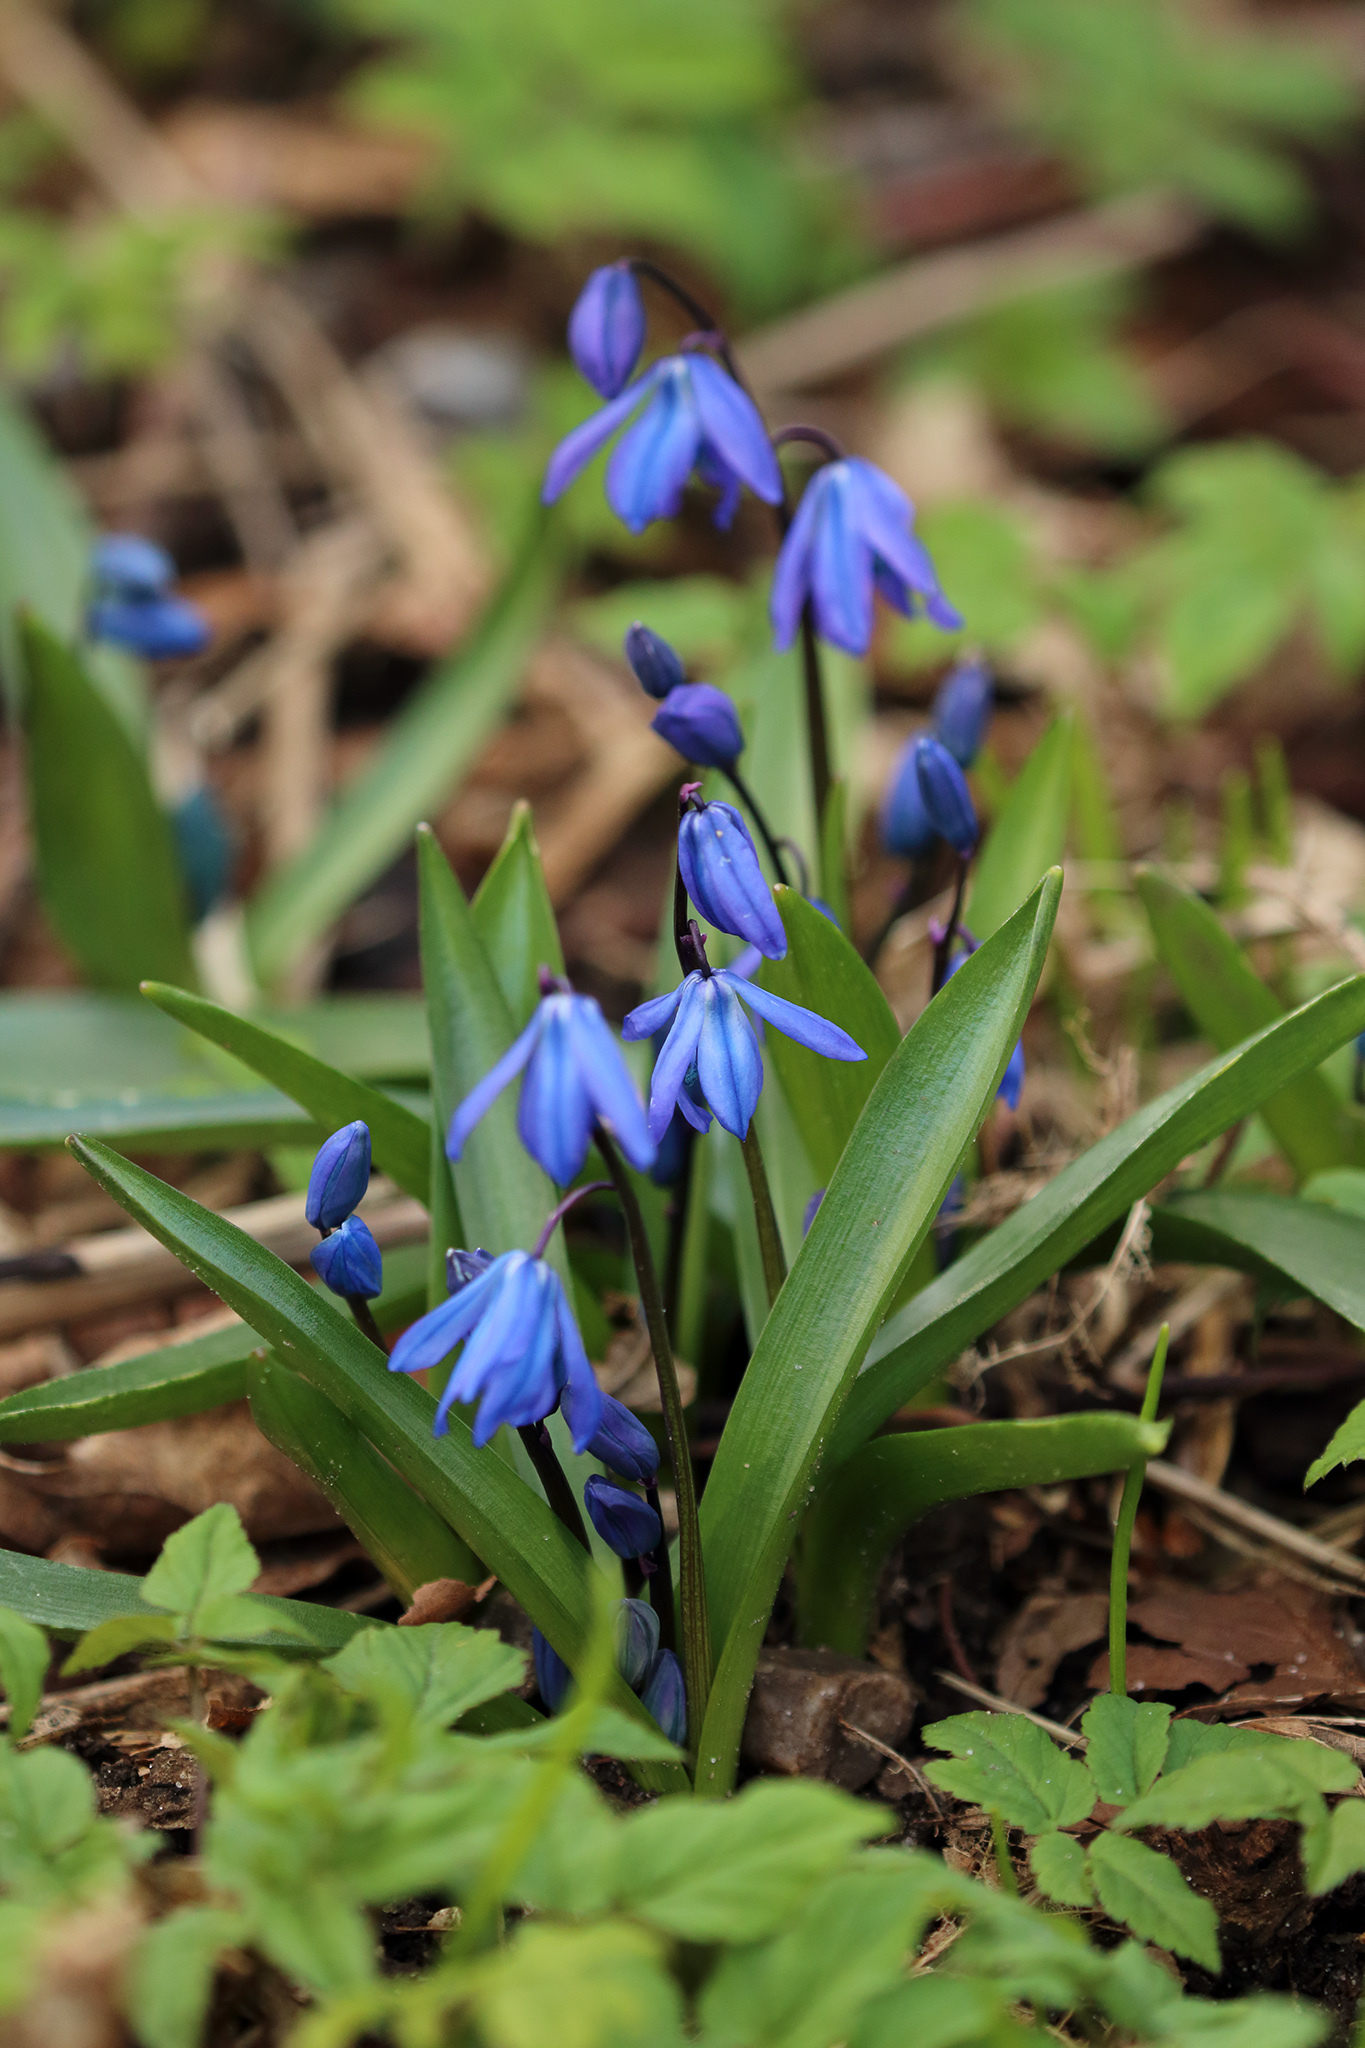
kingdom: Plantae
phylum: Tracheophyta
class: Liliopsida
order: Asparagales
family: Asparagaceae
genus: Scilla
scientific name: Scilla siberica
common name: Siberian squill
